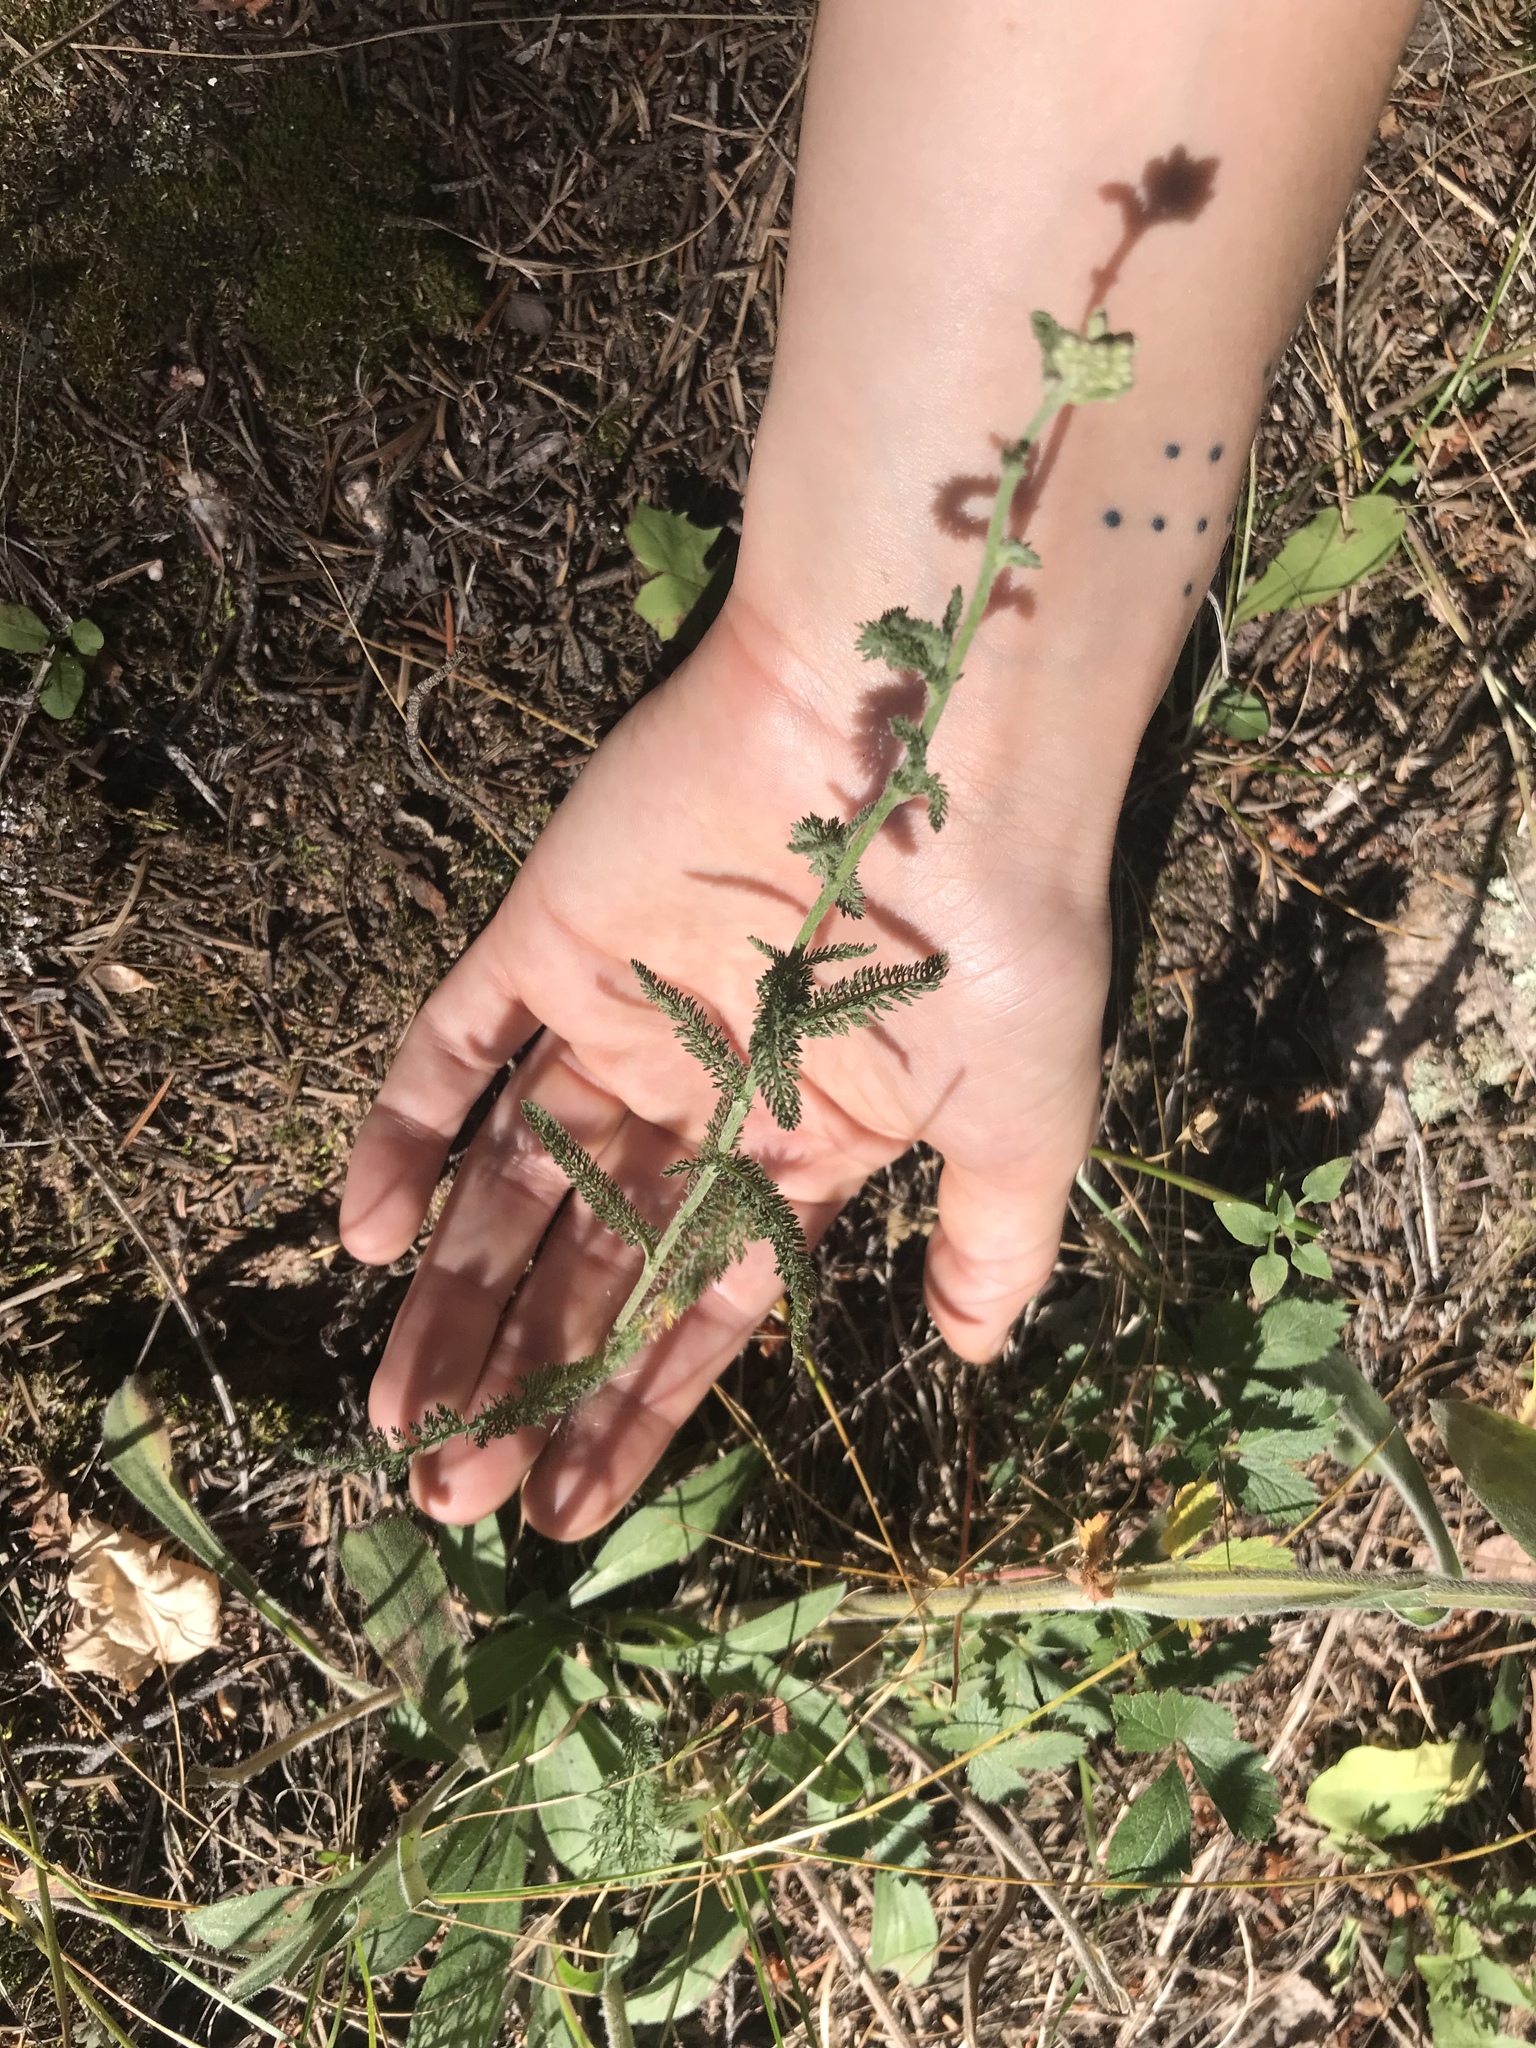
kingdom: Plantae
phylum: Tracheophyta
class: Magnoliopsida
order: Asterales
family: Asteraceae
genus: Achillea
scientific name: Achillea millefolium
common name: Yarrow
